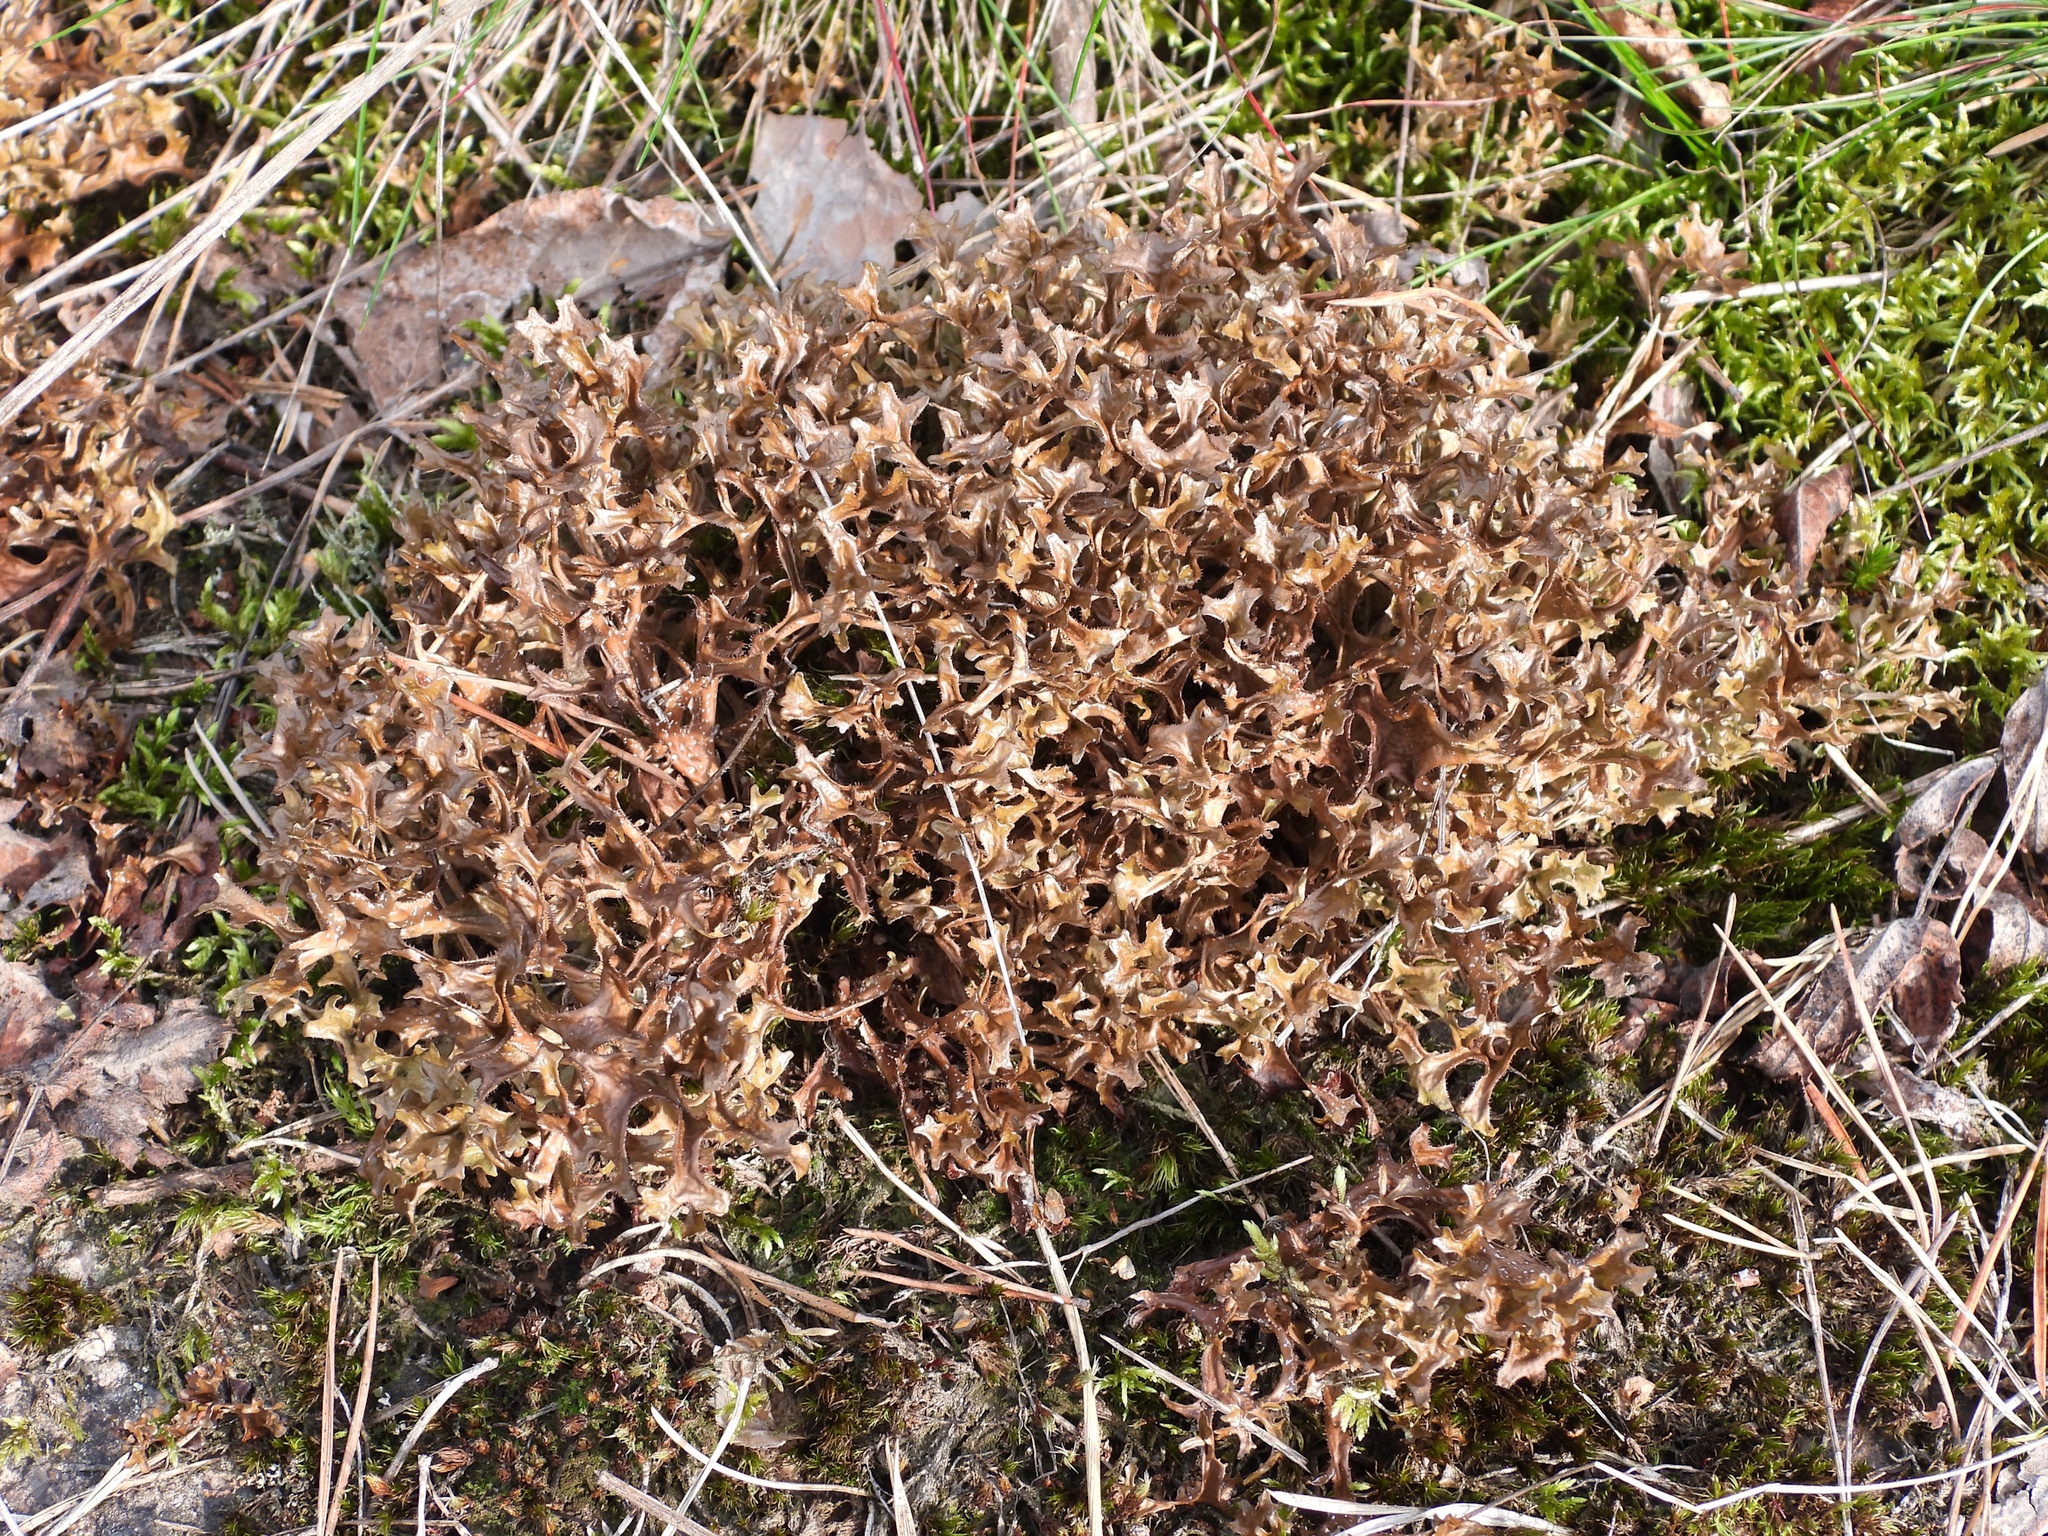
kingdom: Fungi
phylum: Ascomycota
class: Lecanoromycetes
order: Lecanorales
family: Parmeliaceae
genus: Cetraria
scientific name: Cetraria islandica
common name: Iceland lichen
